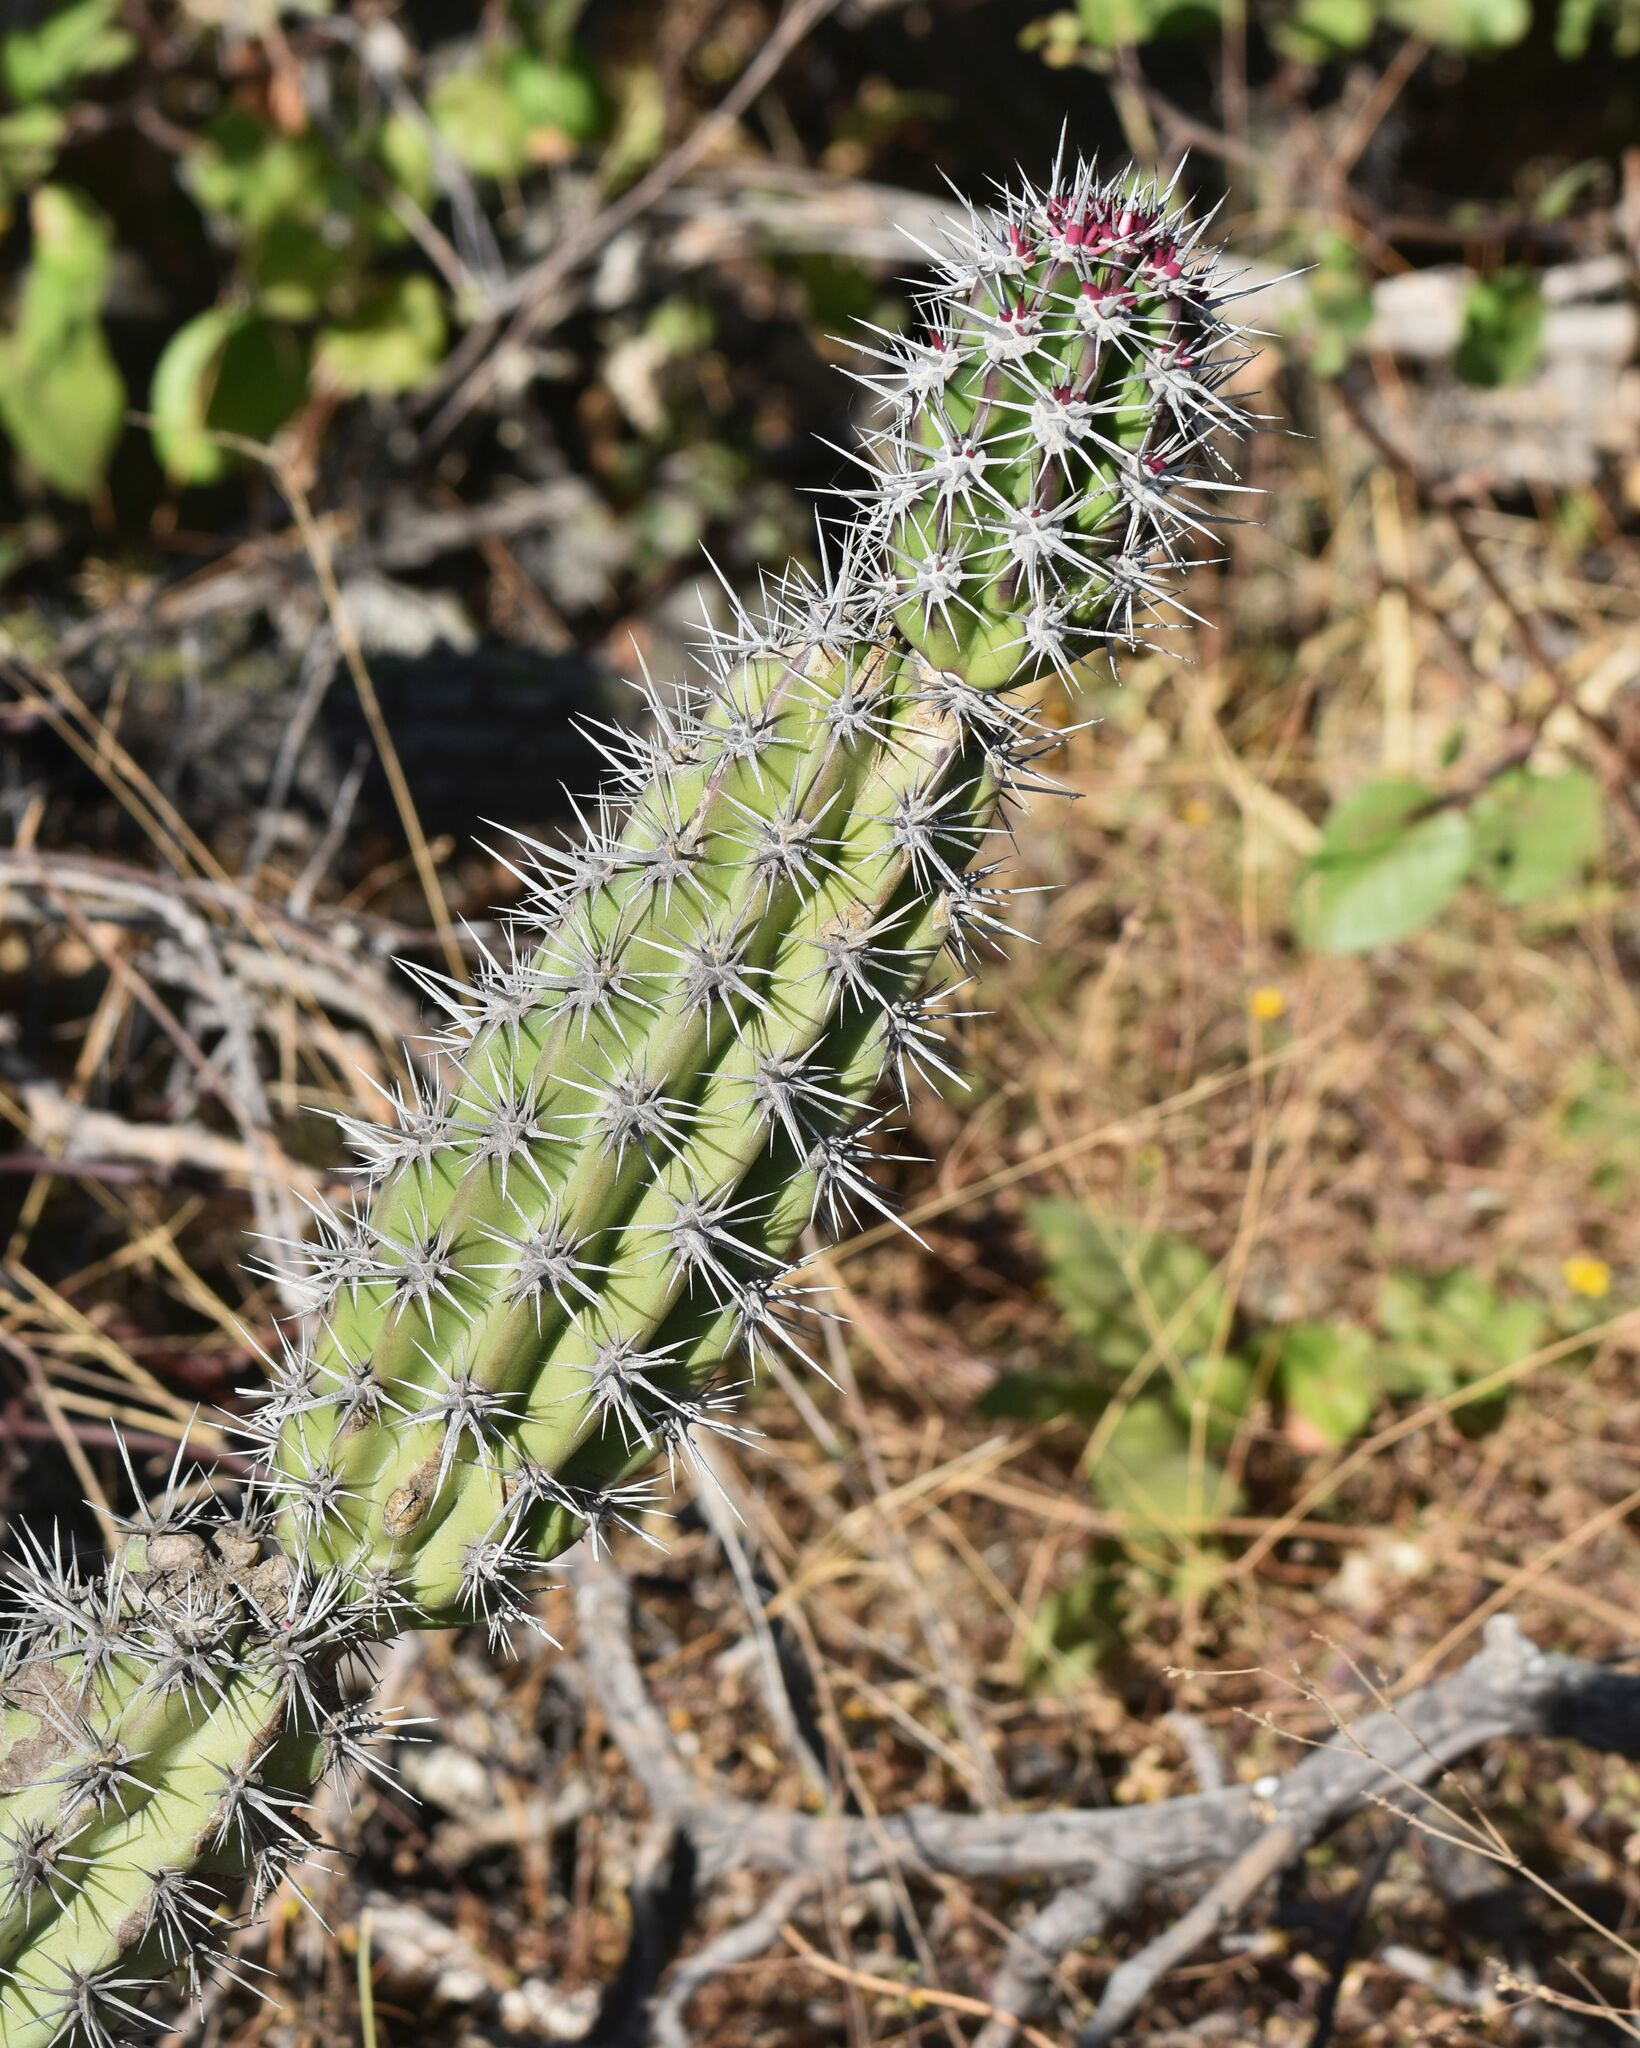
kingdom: Plantae
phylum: Tracheophyta
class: Magnoliopsida
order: Caryophyllales
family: Cactaceae
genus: Stenocereus
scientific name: Stenocereus gummosus
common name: Dagger cactus
